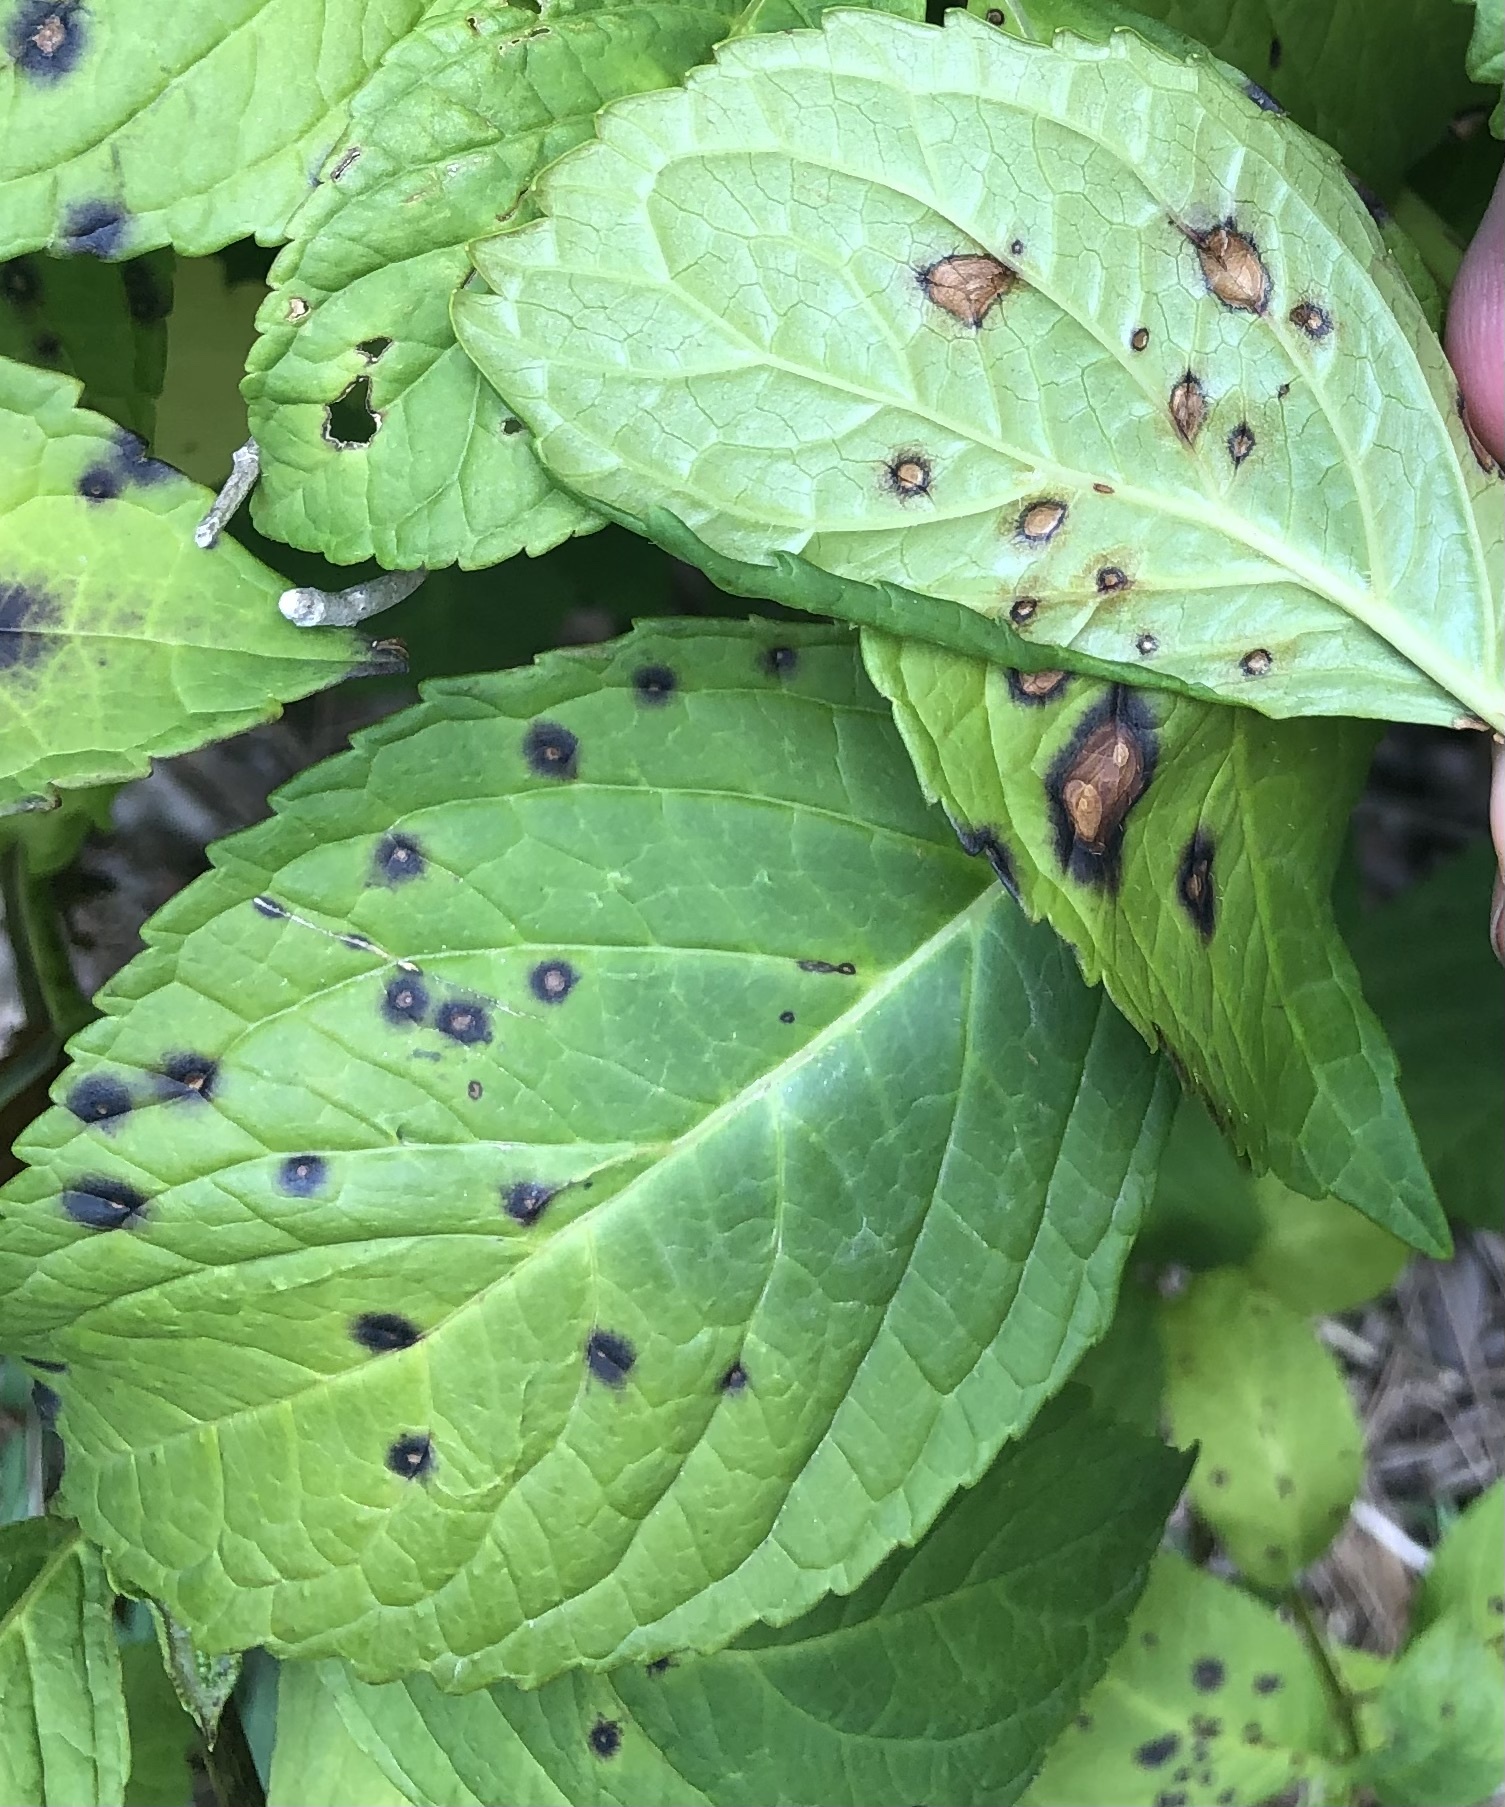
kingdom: Fungi
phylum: Ascomycota
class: Dothideomycetes
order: Mycosphaerellales
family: Mycosphaerellaceae
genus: Cercospora
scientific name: Cercospora hydrangeae
